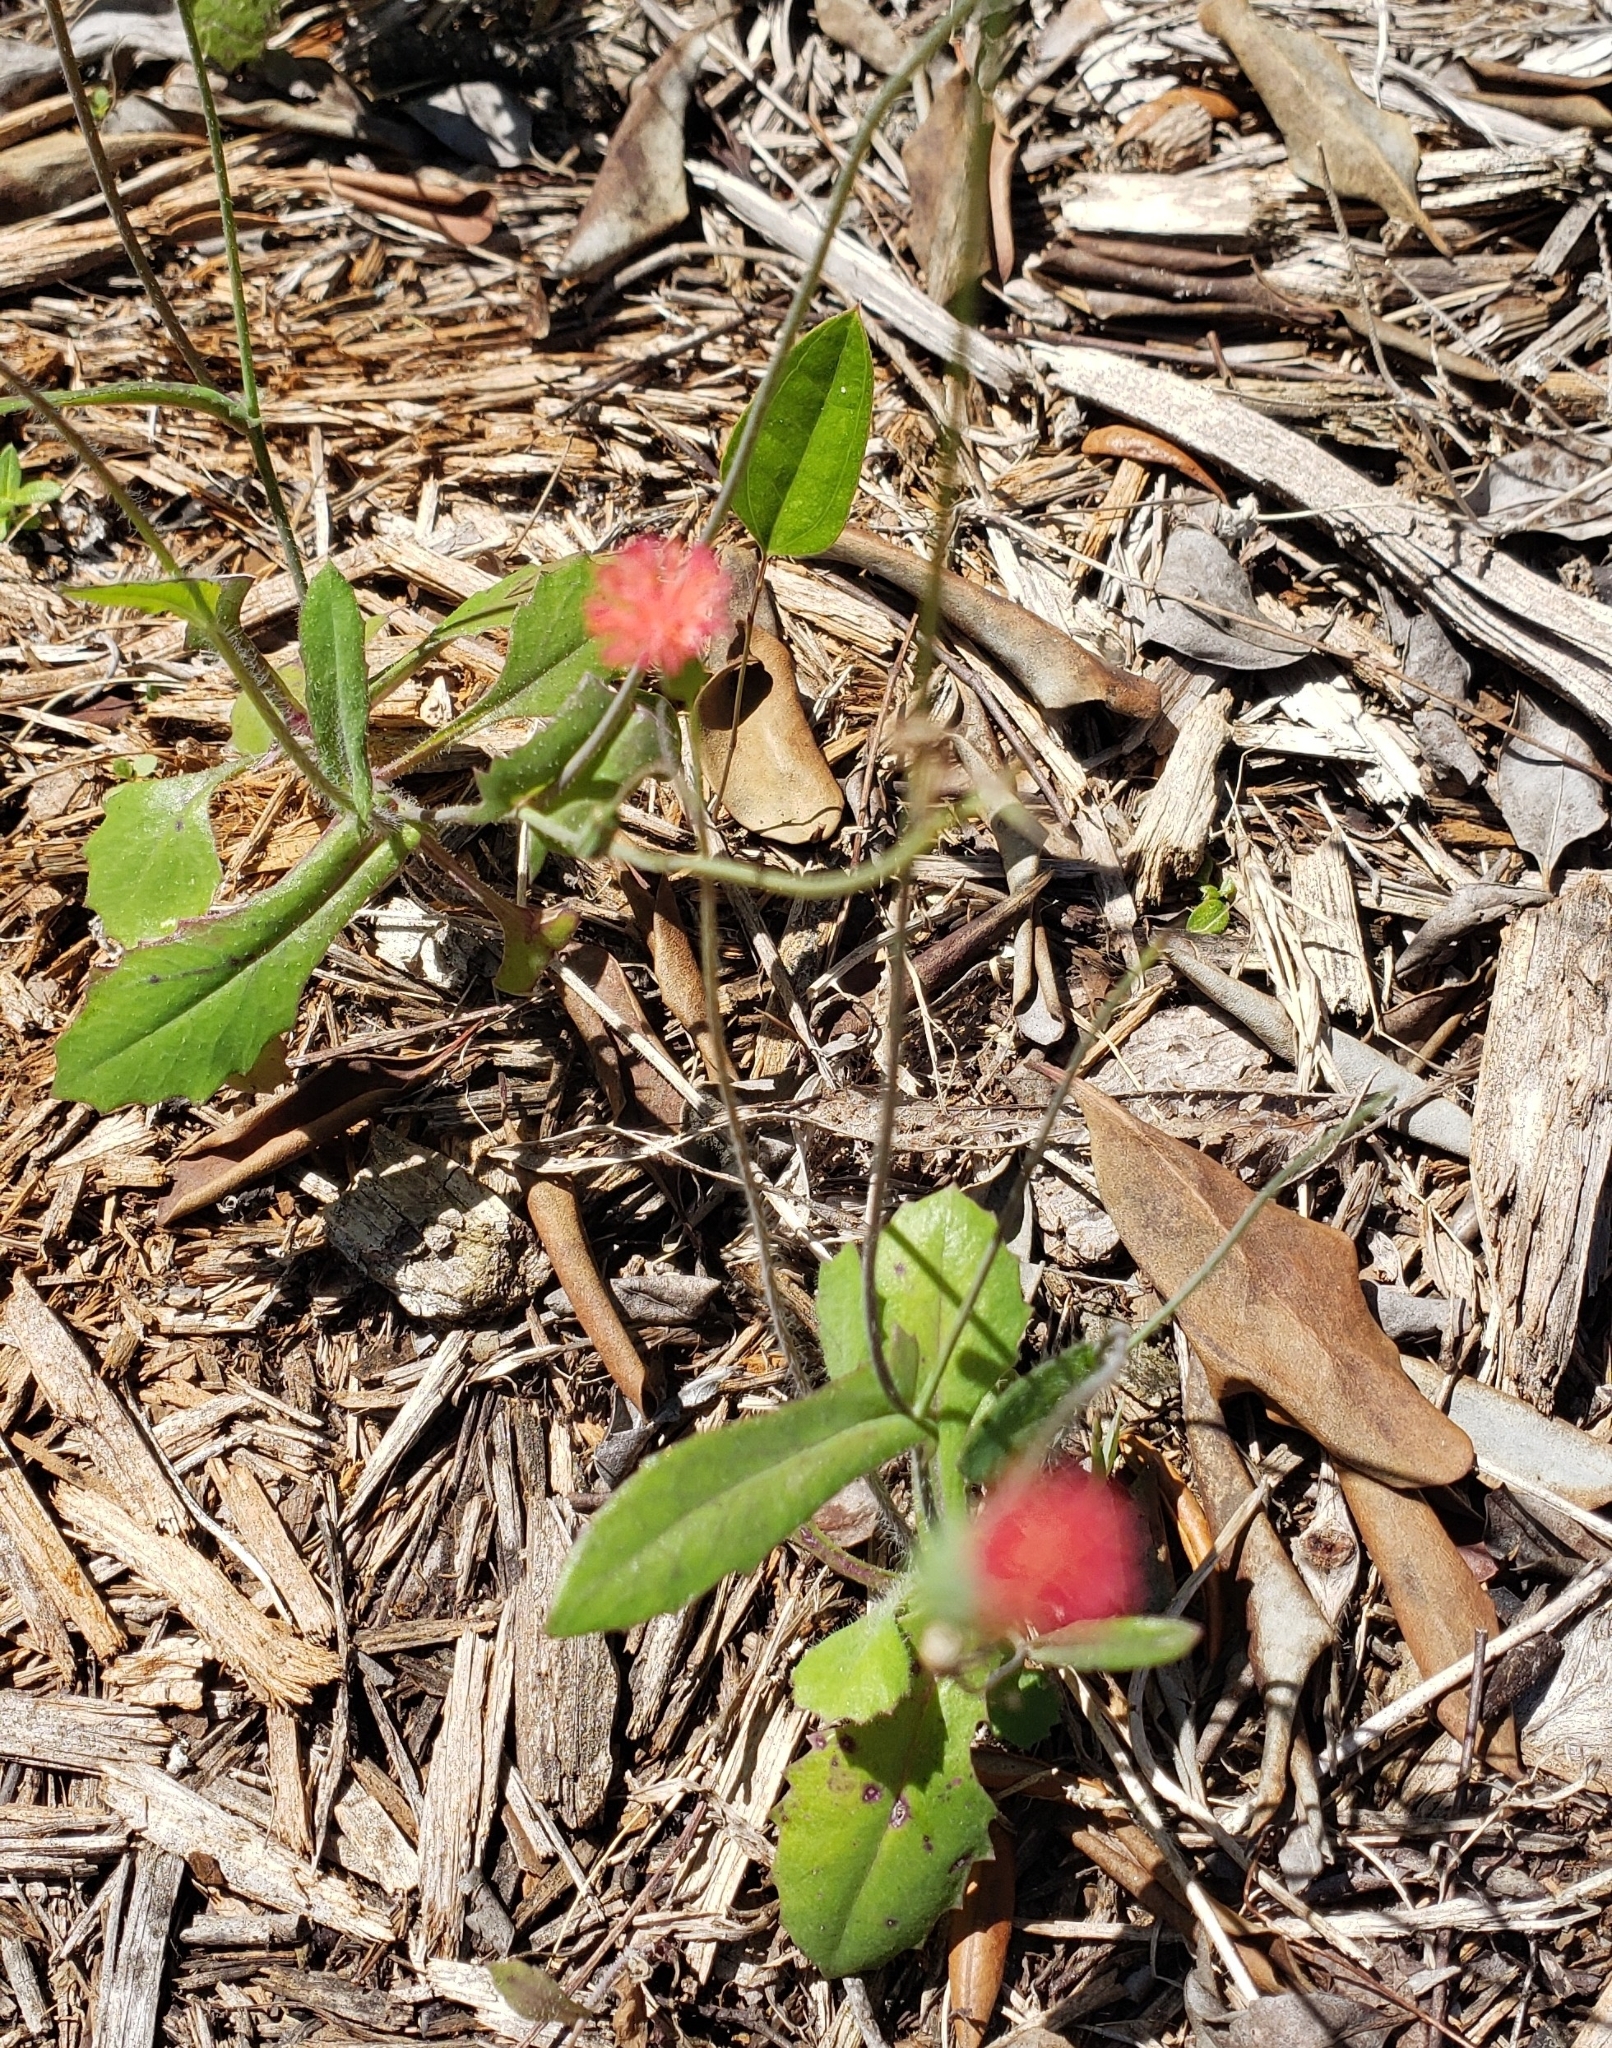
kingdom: Plantae
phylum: Tracheophyta
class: Magnoliopsida
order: Asterales
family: Asteraceae
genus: Emilia
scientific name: Emilia fosbergii
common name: Florida tasselflower
